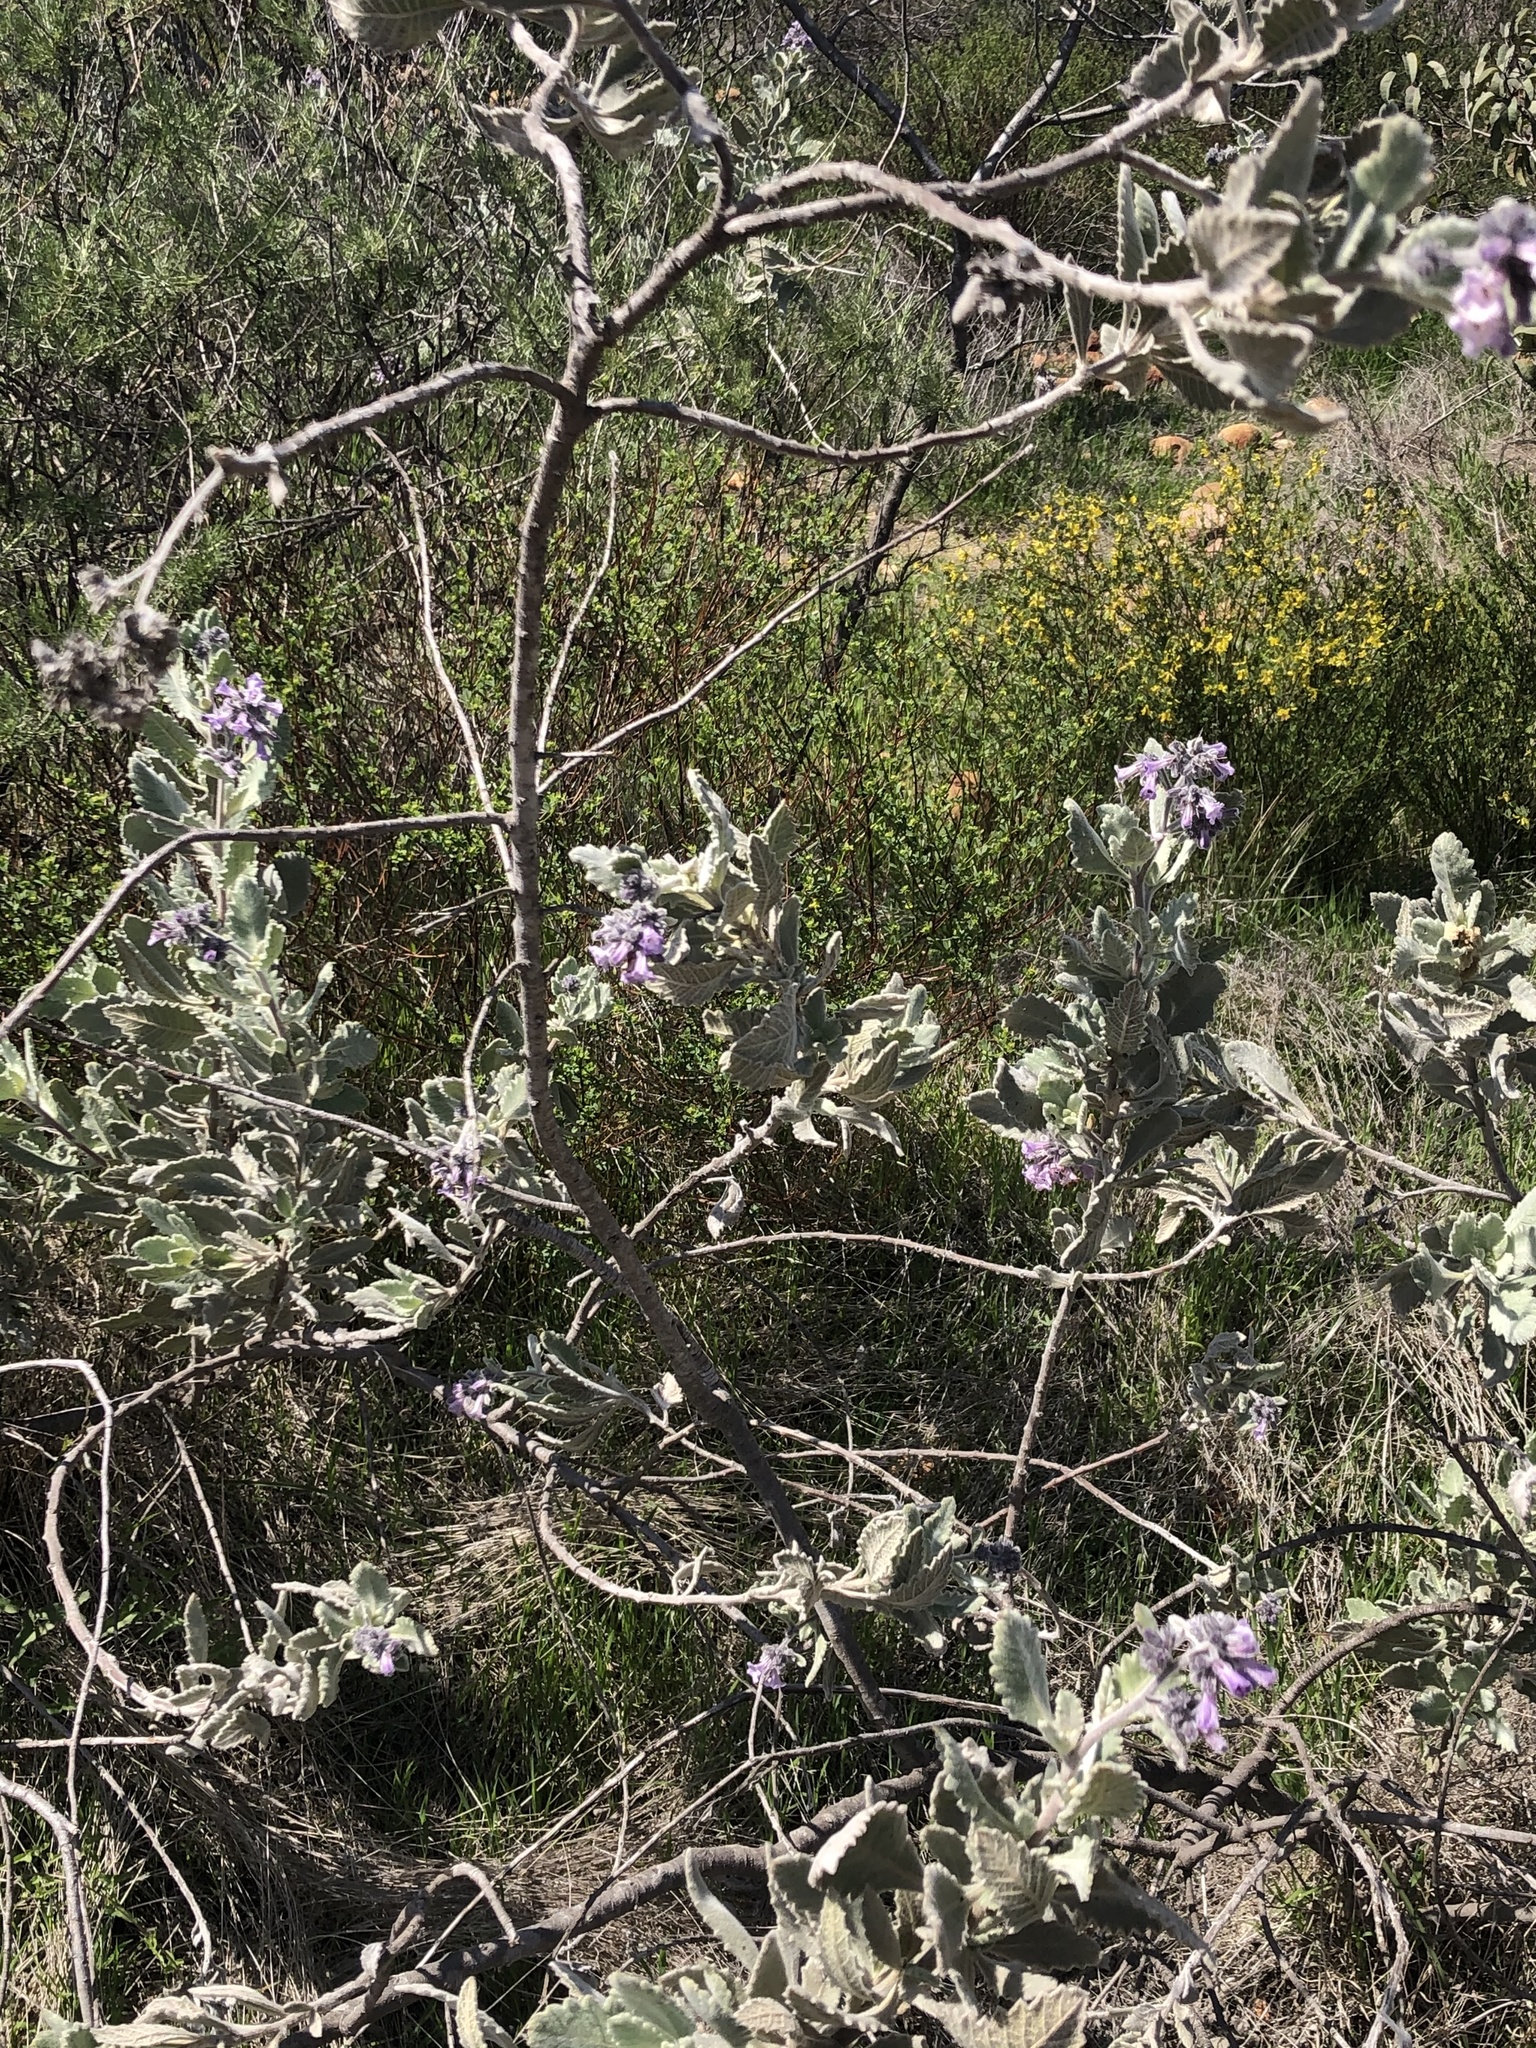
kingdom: Plantae
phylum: Tracheophyta
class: Magnoliopsida
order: Boraginales
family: Namaceae
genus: Eriodictyon
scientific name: Eriodictyon crassifolium
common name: Thick-leaf yerba-santa
